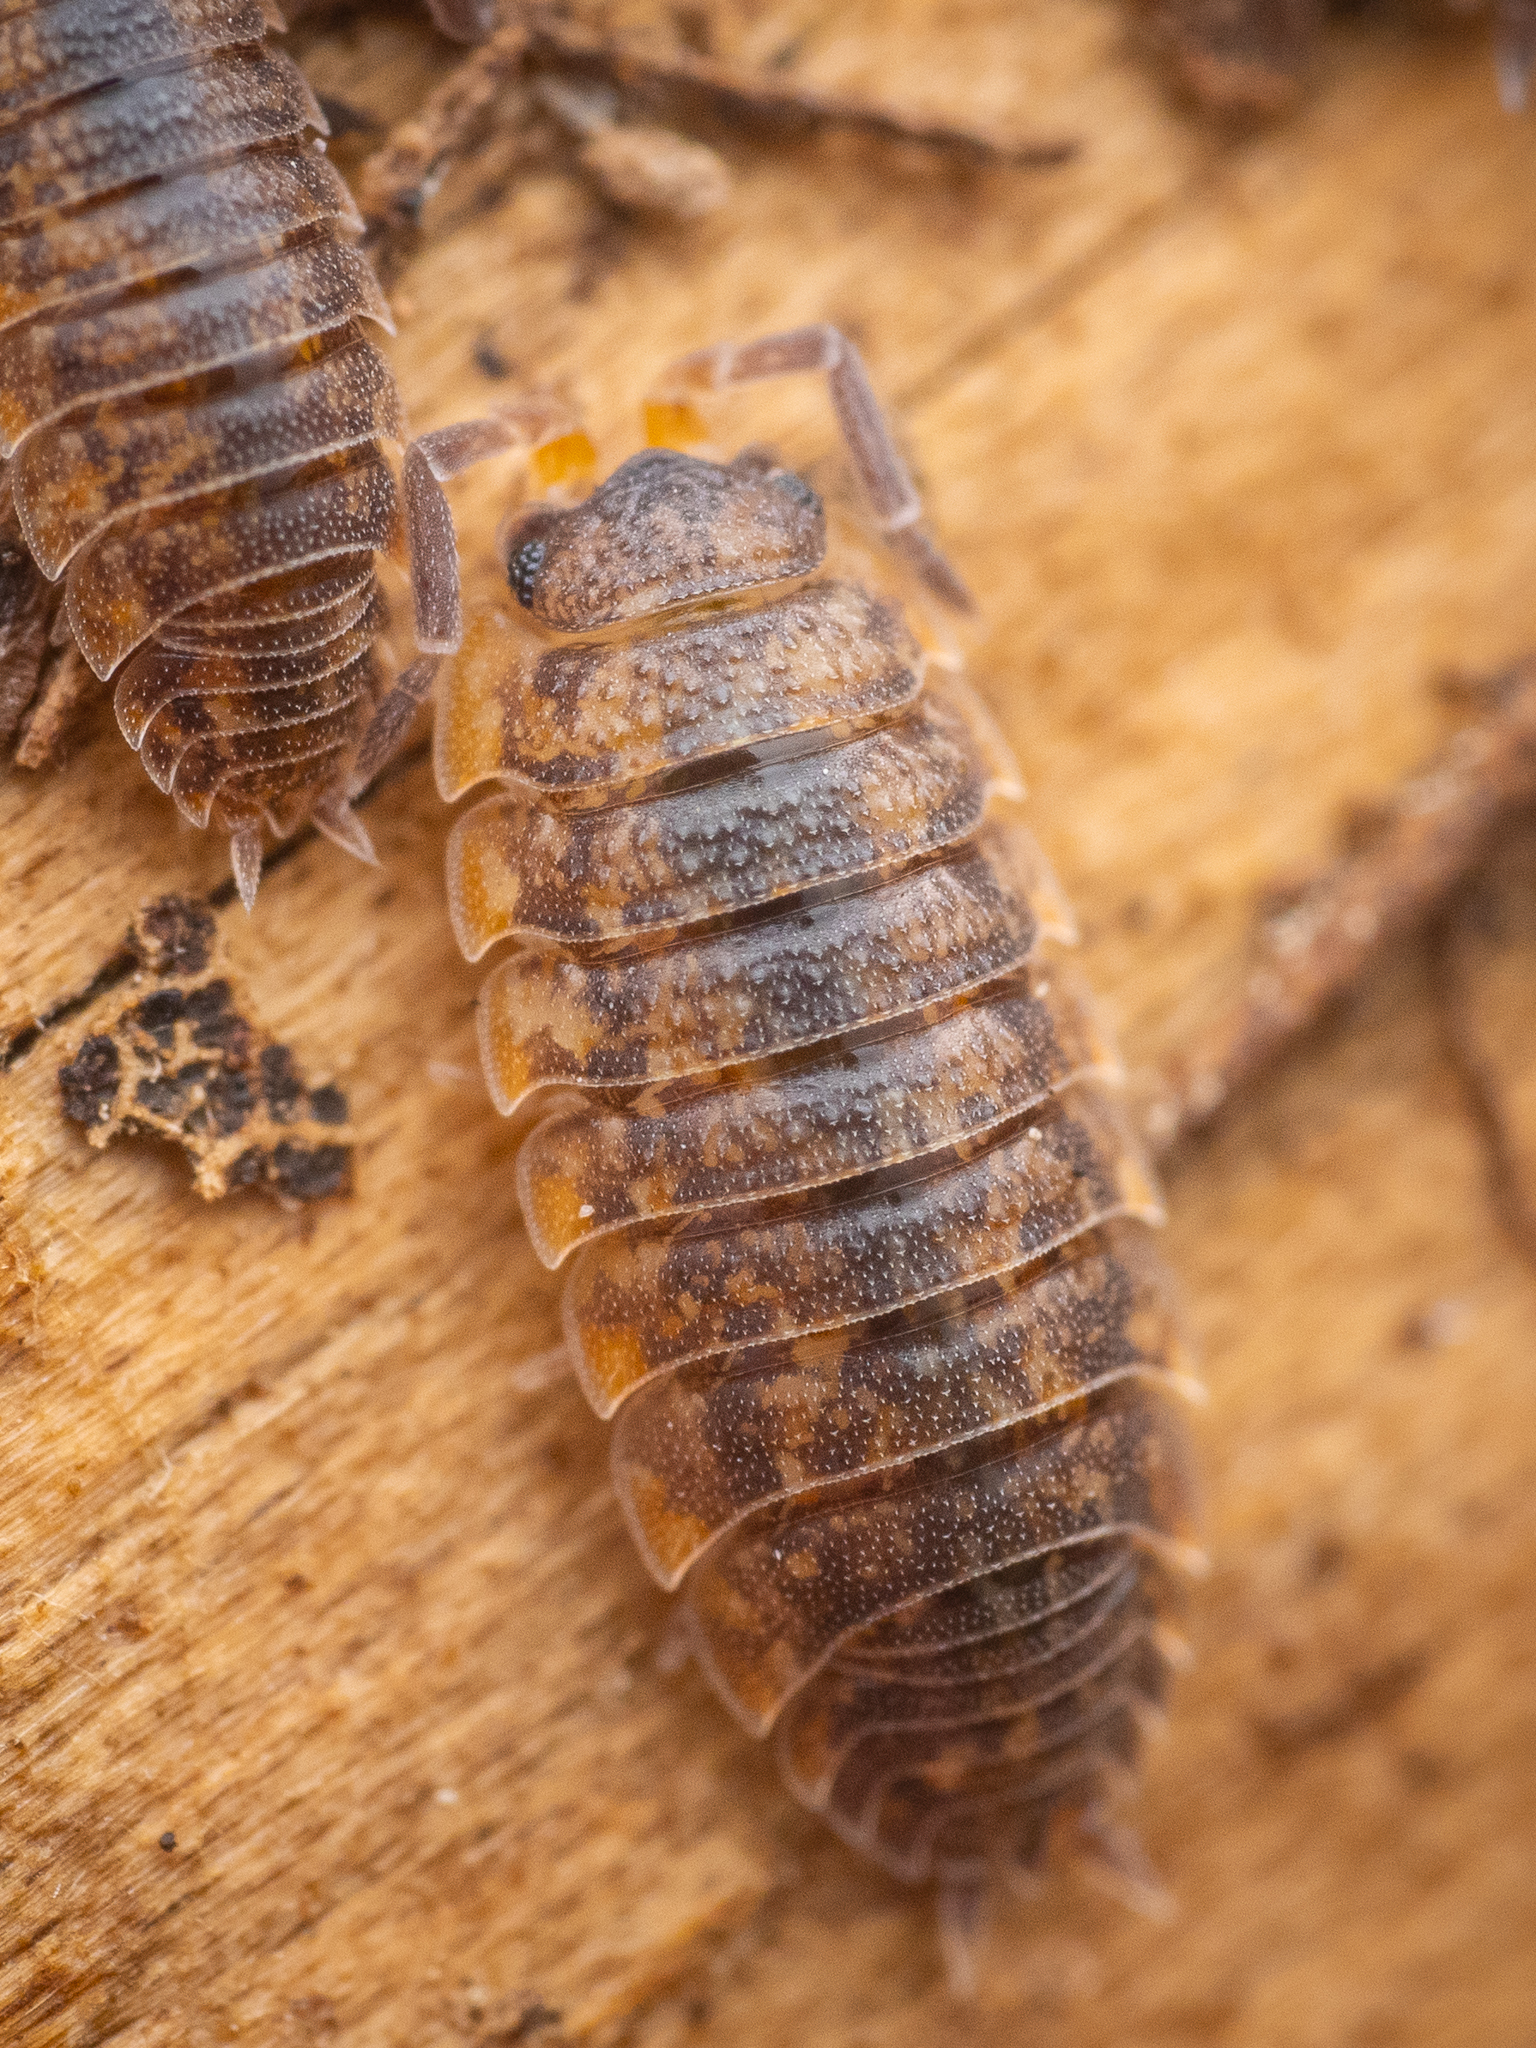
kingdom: Animalia
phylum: Arthropoda
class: Malacostraca
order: Isopoda
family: Porcellionidae
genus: Porcellio
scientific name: Porcellio scaber
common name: Common rough woodlouse
